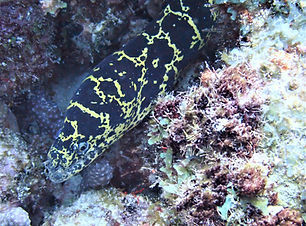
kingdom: Animalia
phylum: Chordata
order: Anguilliformes
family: Muraenidae
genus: Echidna
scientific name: Echidna catenata
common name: Chain moray
